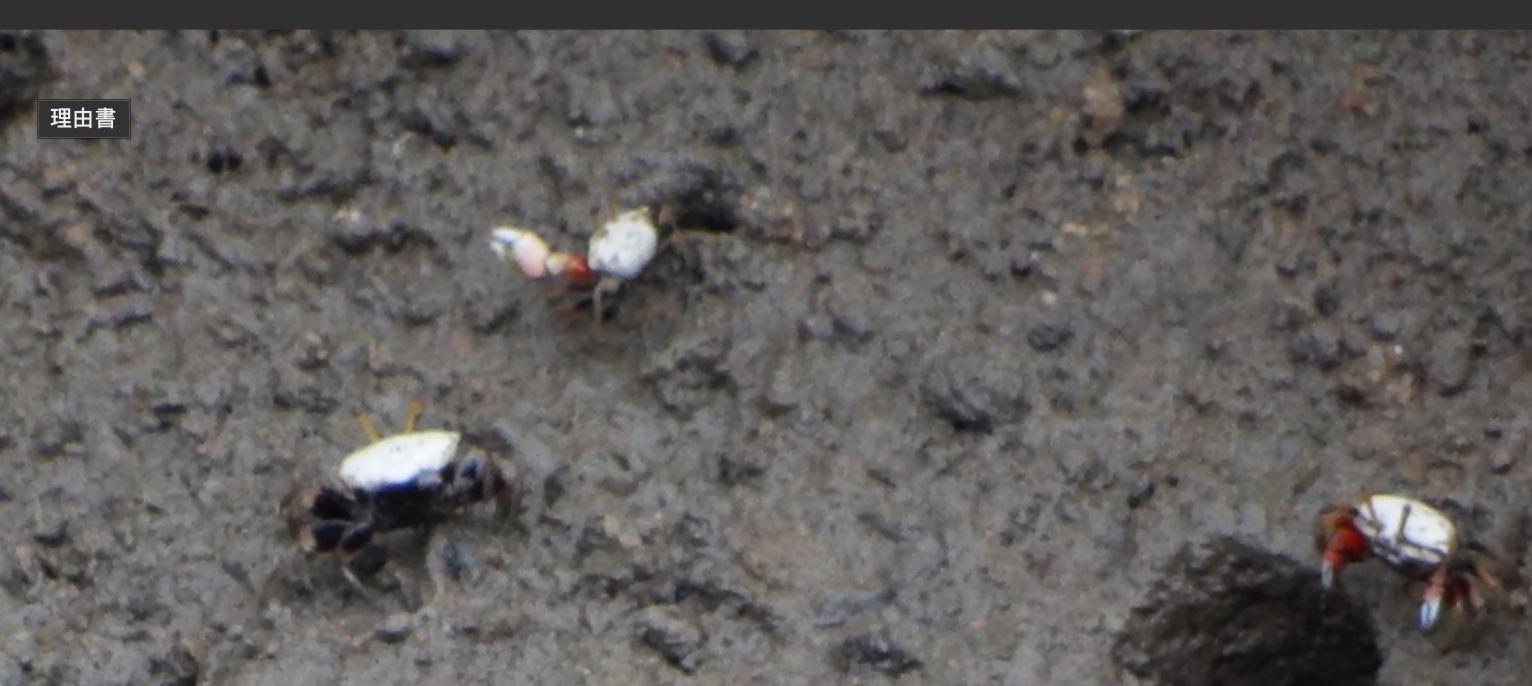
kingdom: Animalia
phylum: Arthropoda
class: Malacostraca
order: Decapoda
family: Ocypodidae
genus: Austruca
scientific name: Austruca lactea
